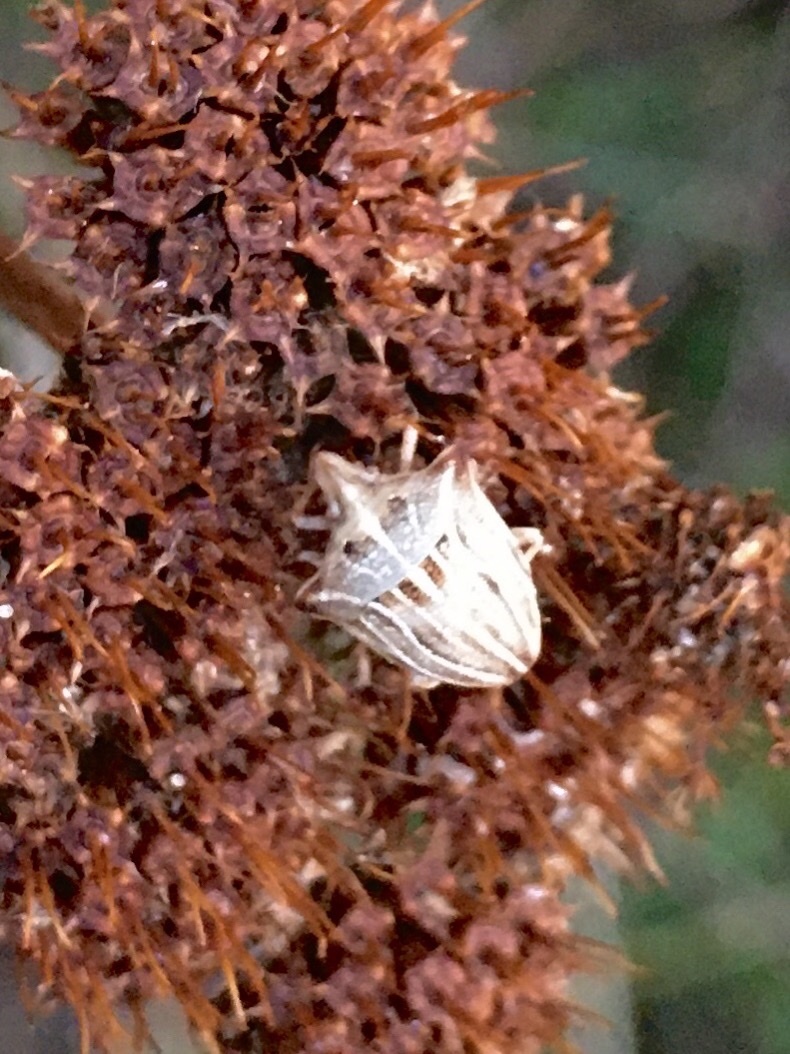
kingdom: Animalia
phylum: Arthropoda
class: Insecta
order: Hemiptera
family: Pentatomidae
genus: Ancyrosoma
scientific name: Ancyrosoma leucogrammes
